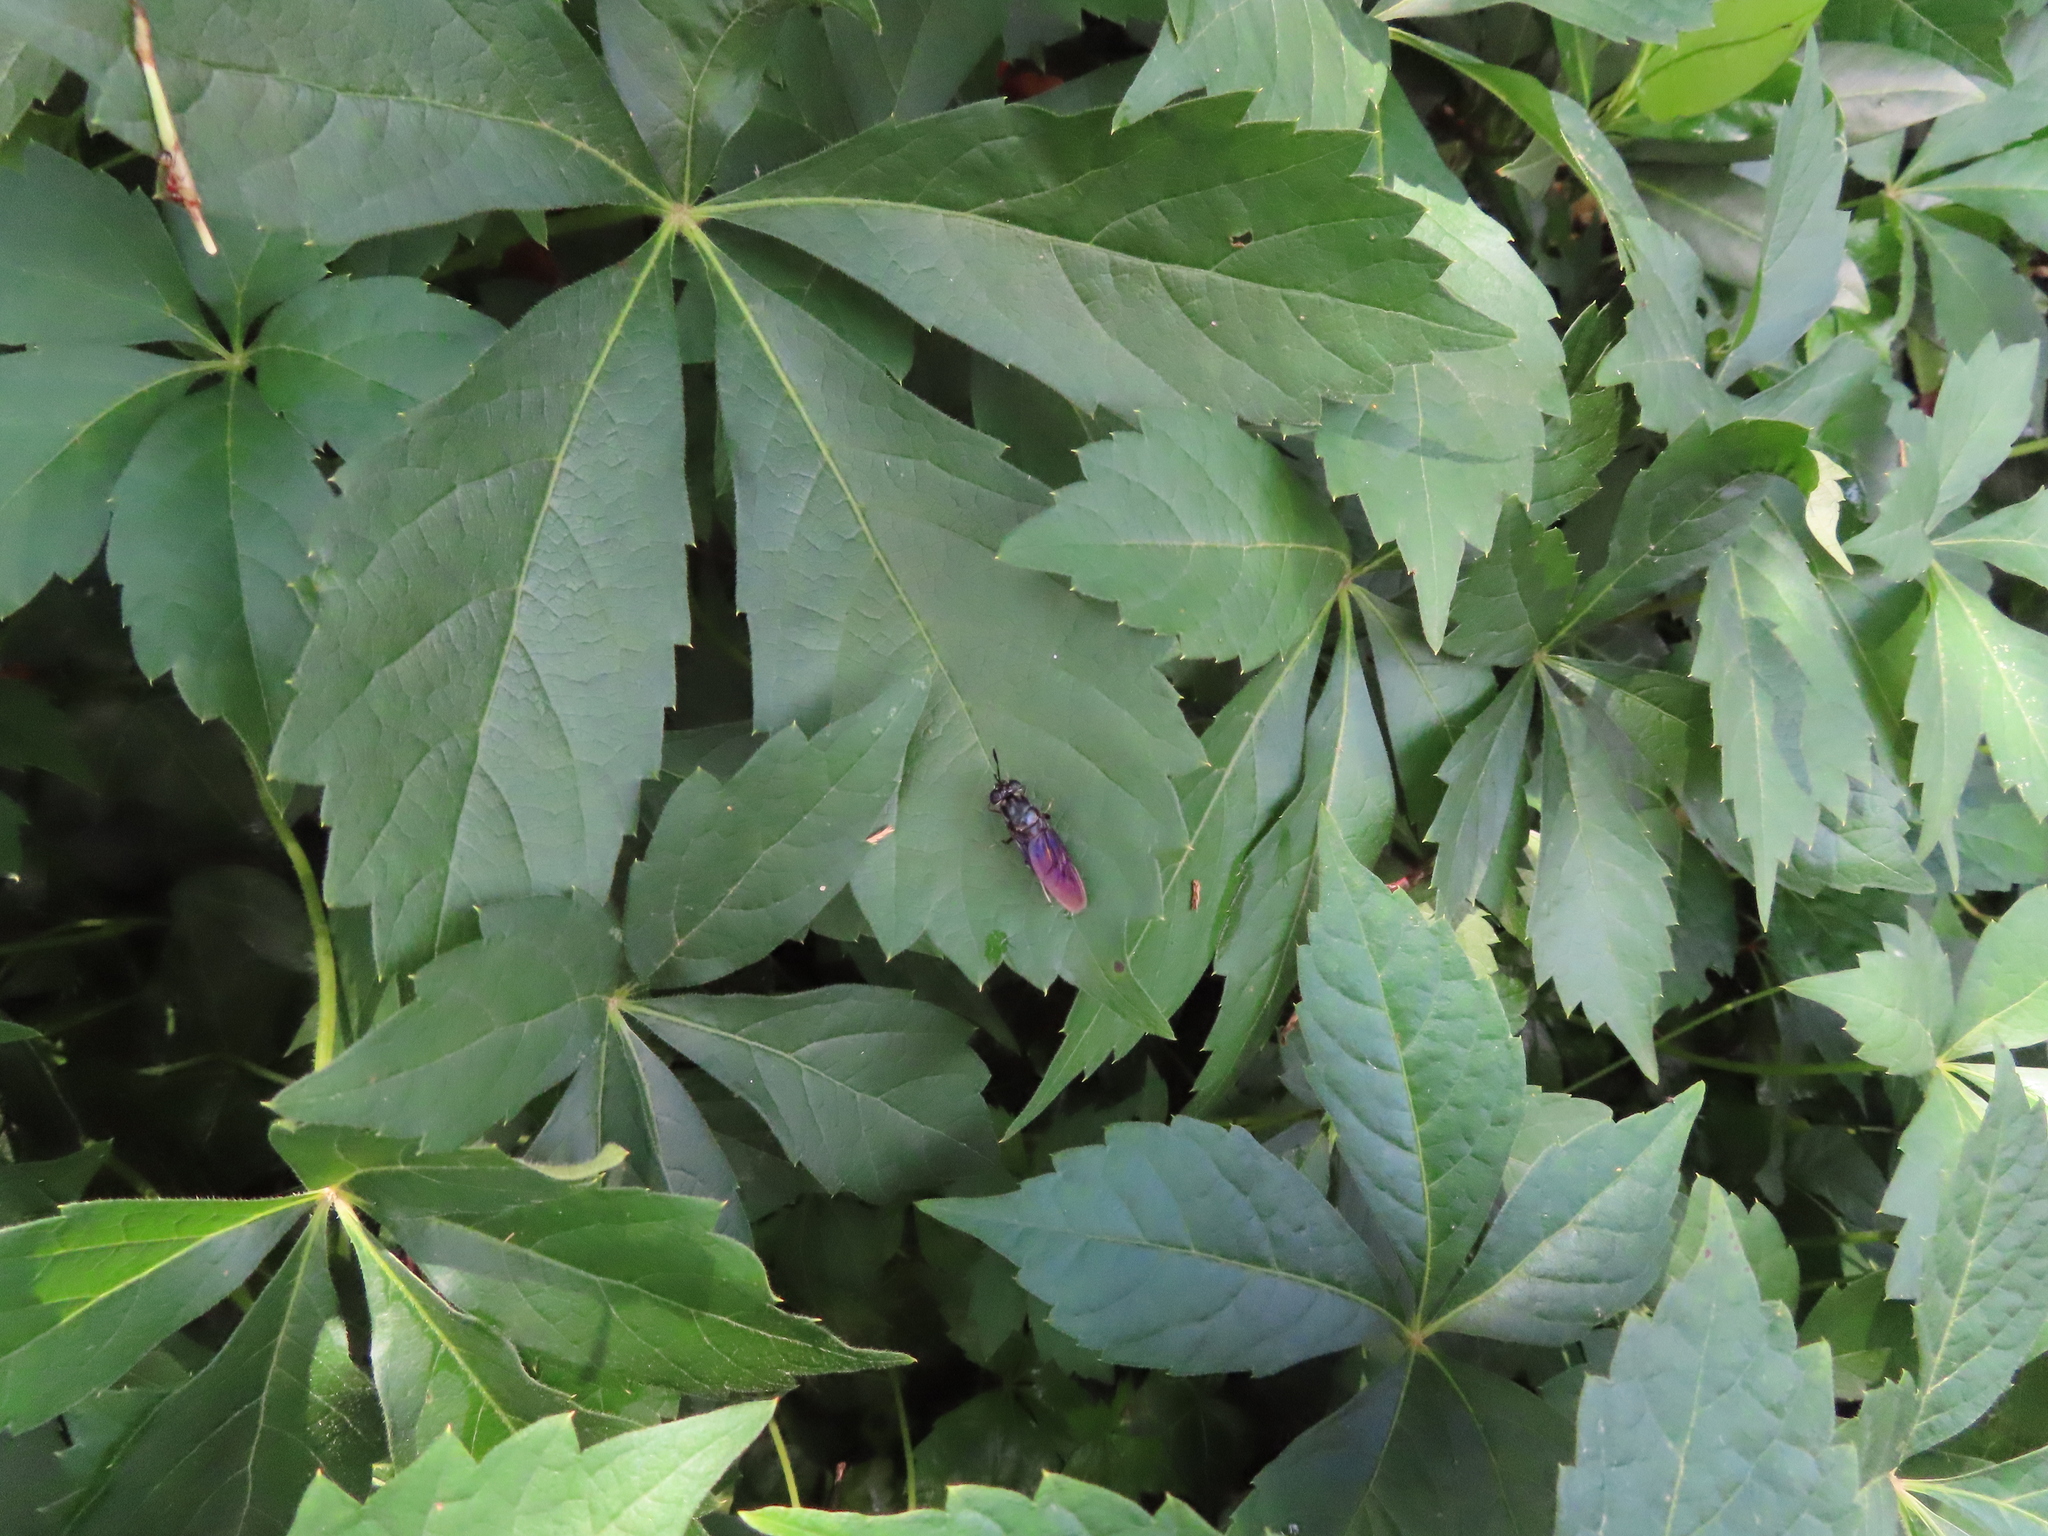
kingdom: Plantae
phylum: Tracheophyta
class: Magnoliopsida
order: Vitales
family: Vitaceae
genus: Parthenocissus
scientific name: Parthenocissus quinquefolia
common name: Virginia-creeper
